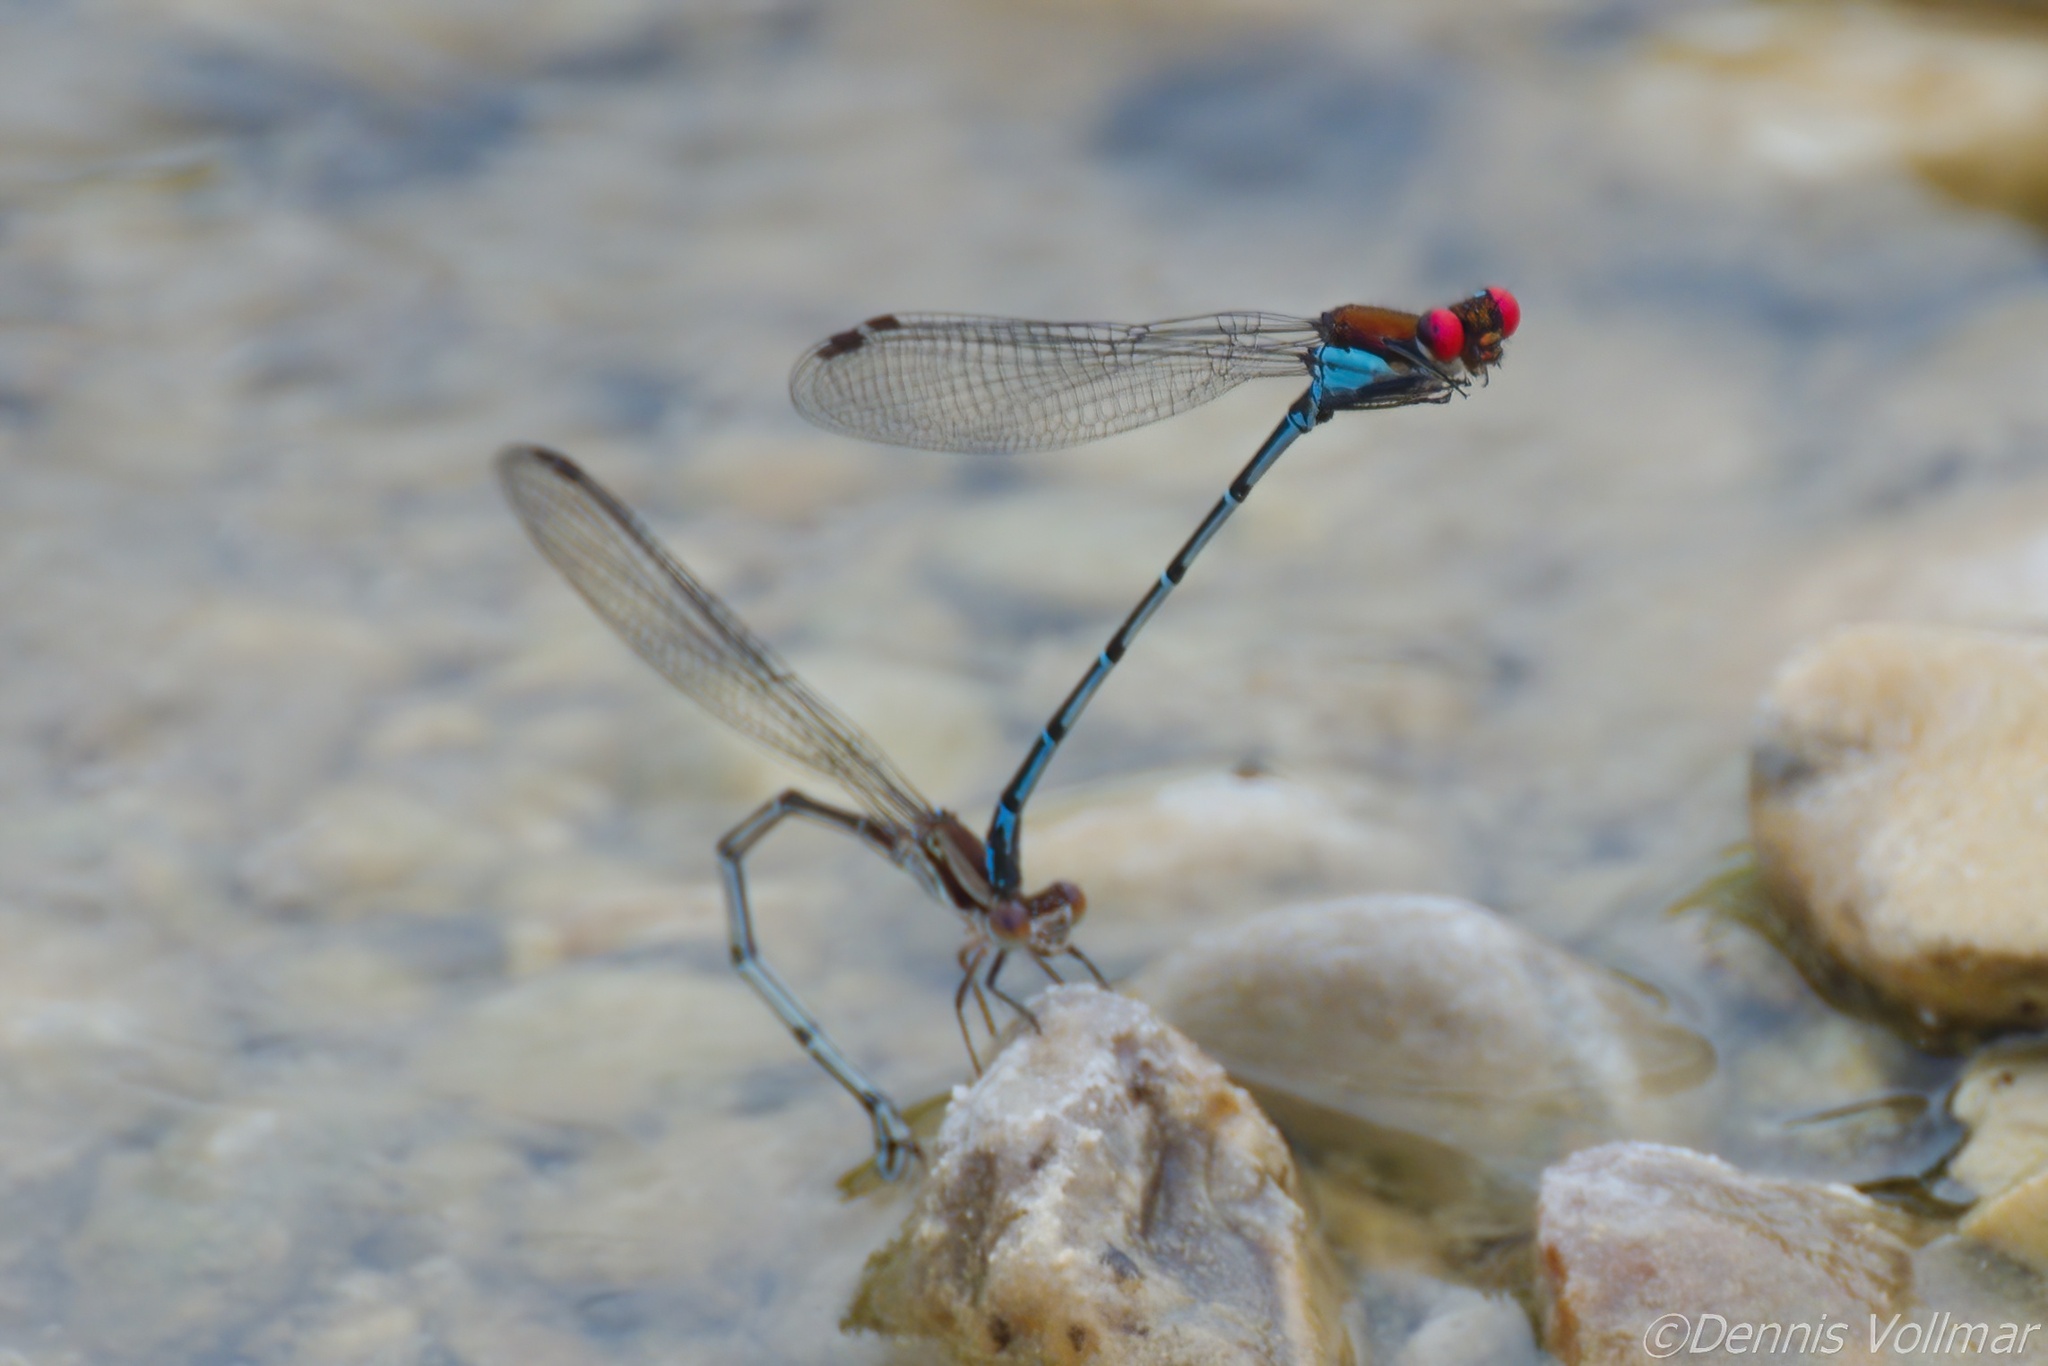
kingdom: Animalia
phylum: Arthropoda
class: Insecta
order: Odonata
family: Coenagrionidae
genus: Argia
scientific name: Argia cuprea
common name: Coppery dancer
